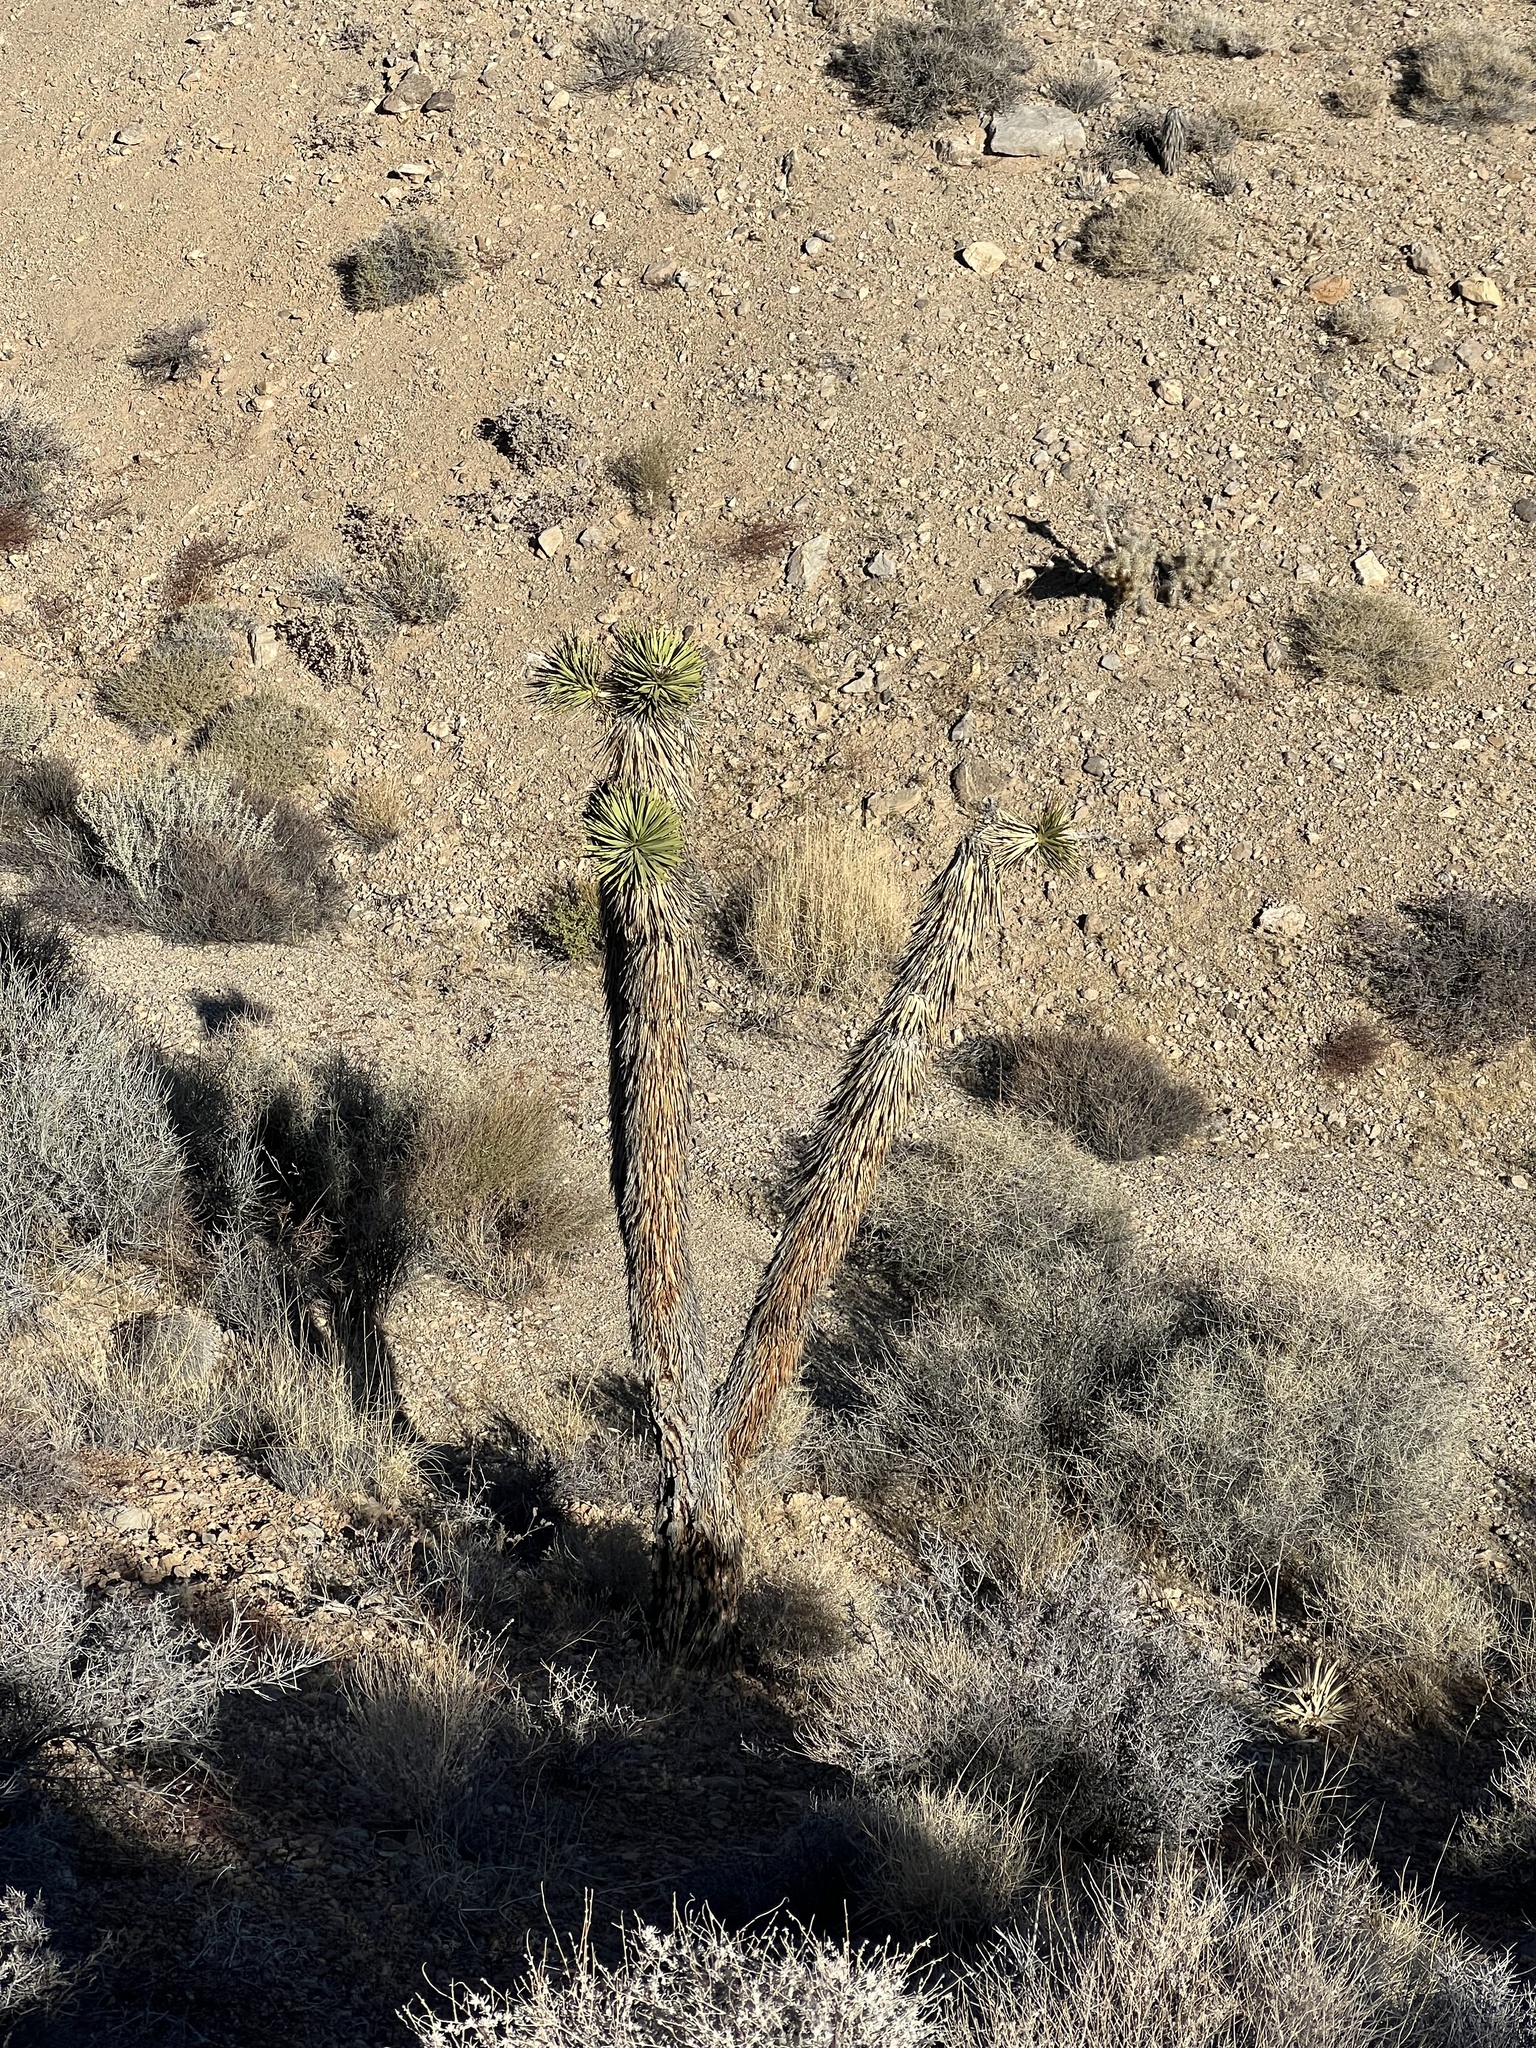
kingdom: Plantae
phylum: Tracheophyta
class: Liliopsida
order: Asparagales
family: Asparagaceae
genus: Yucca
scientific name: Yucca brevifolia
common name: Joshua tree
